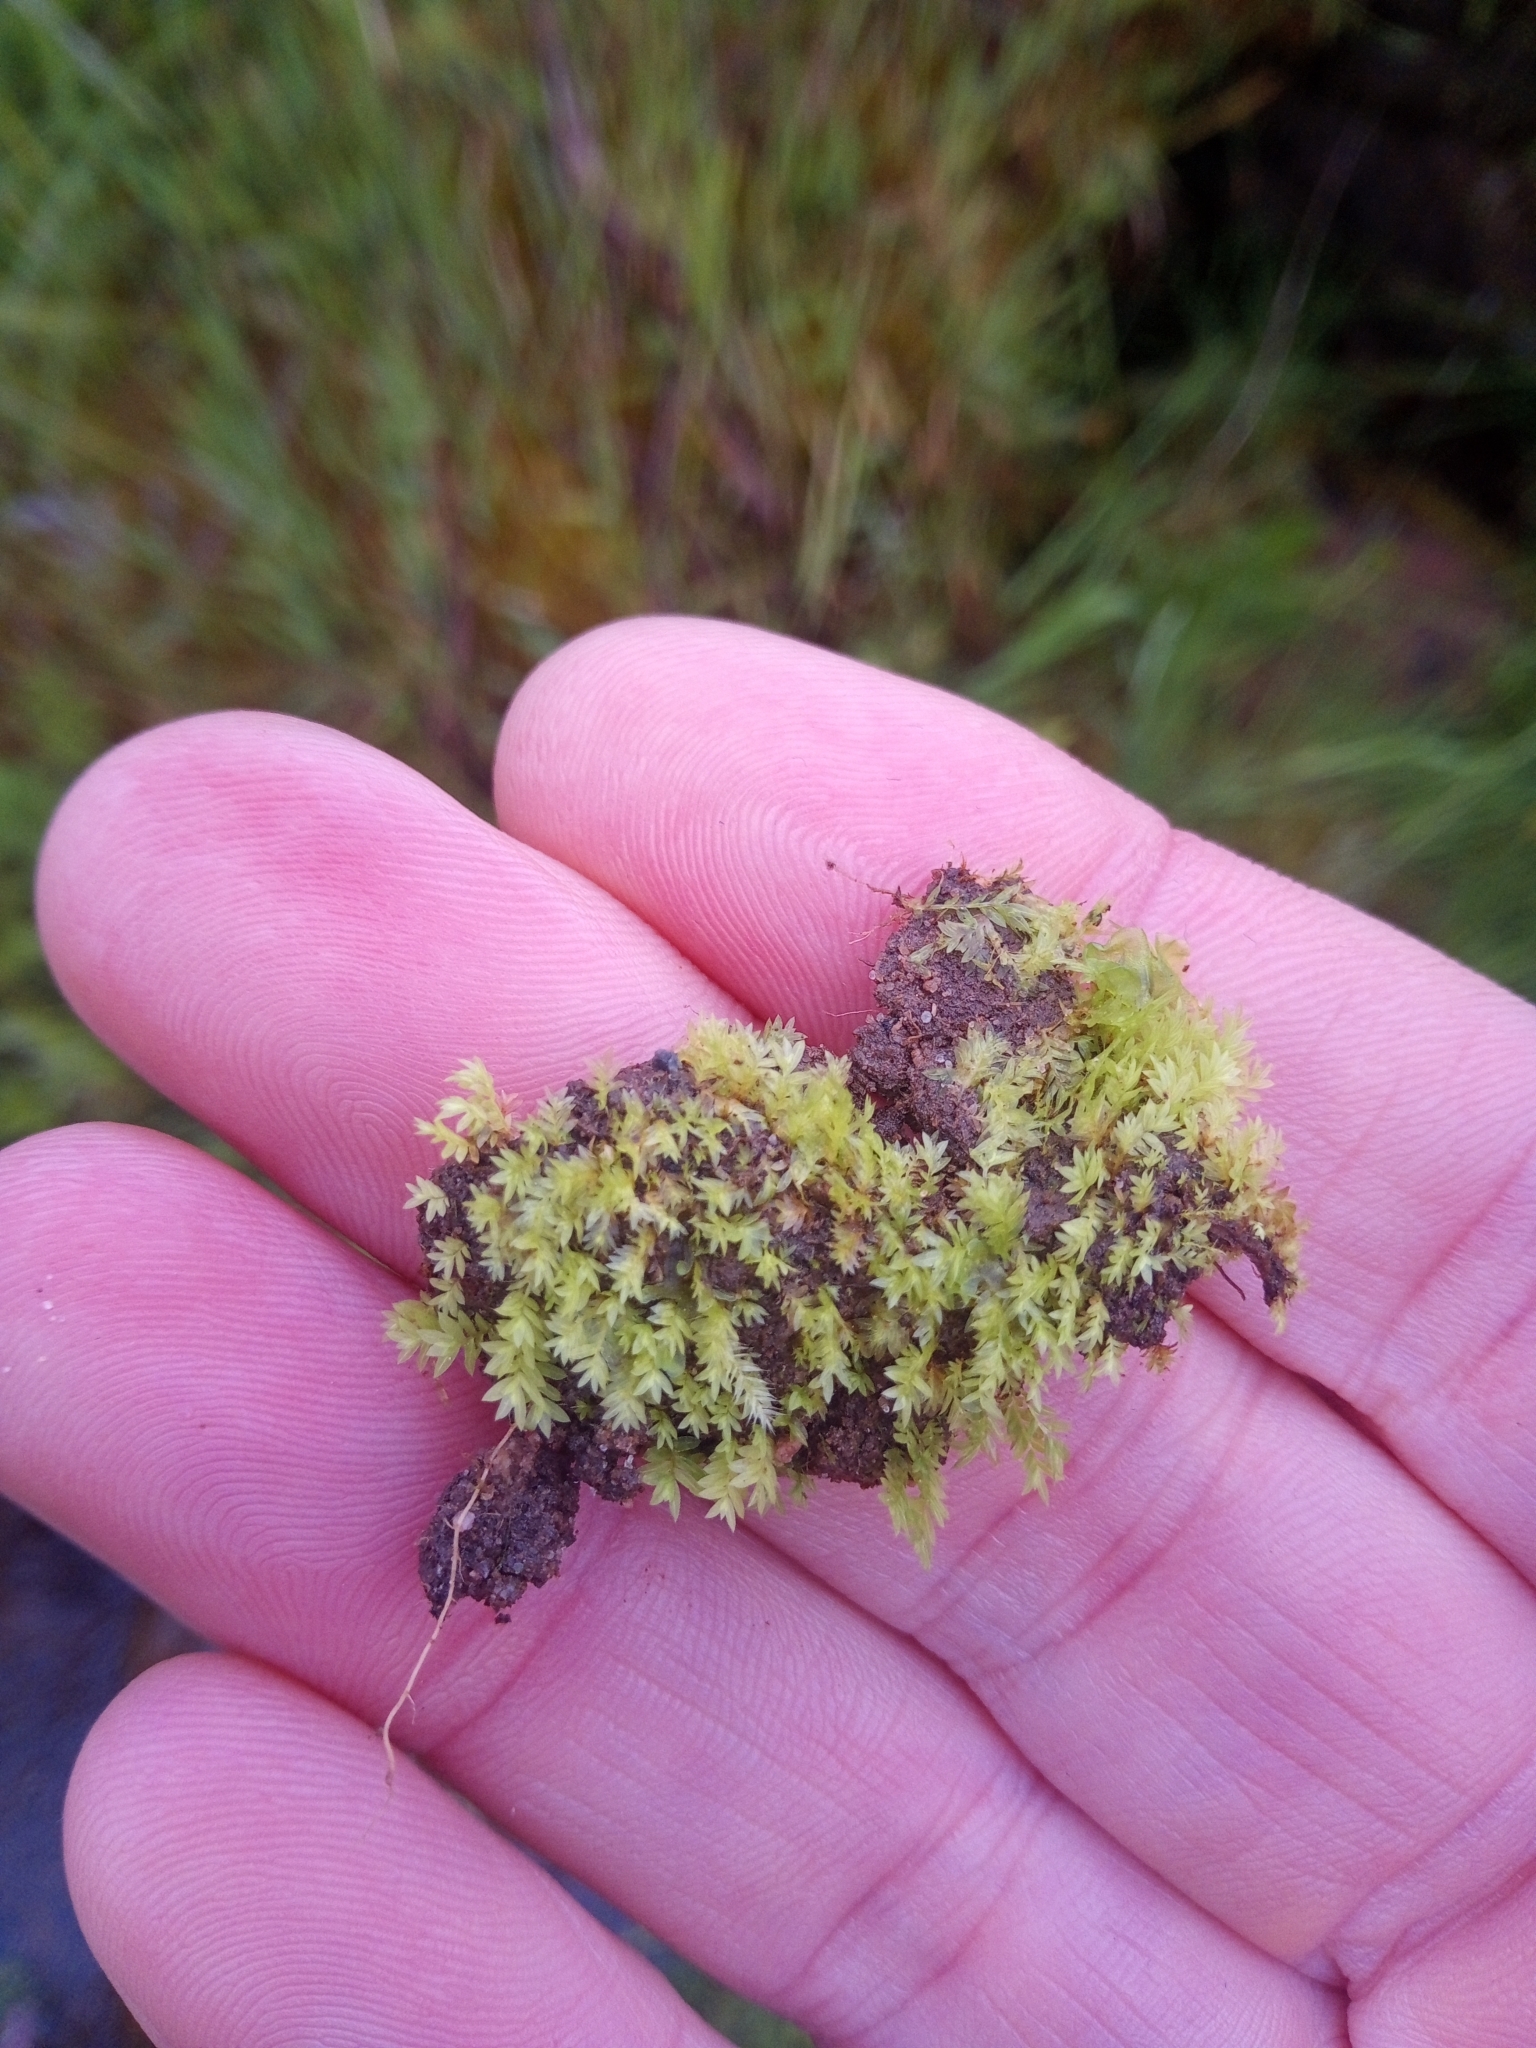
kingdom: Plantae
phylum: Bryophyta
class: Bryopsida
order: Dicranales
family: Fissidentaceae
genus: Fissidens
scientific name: Fissidens bryoides
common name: Lesser pocket moss
